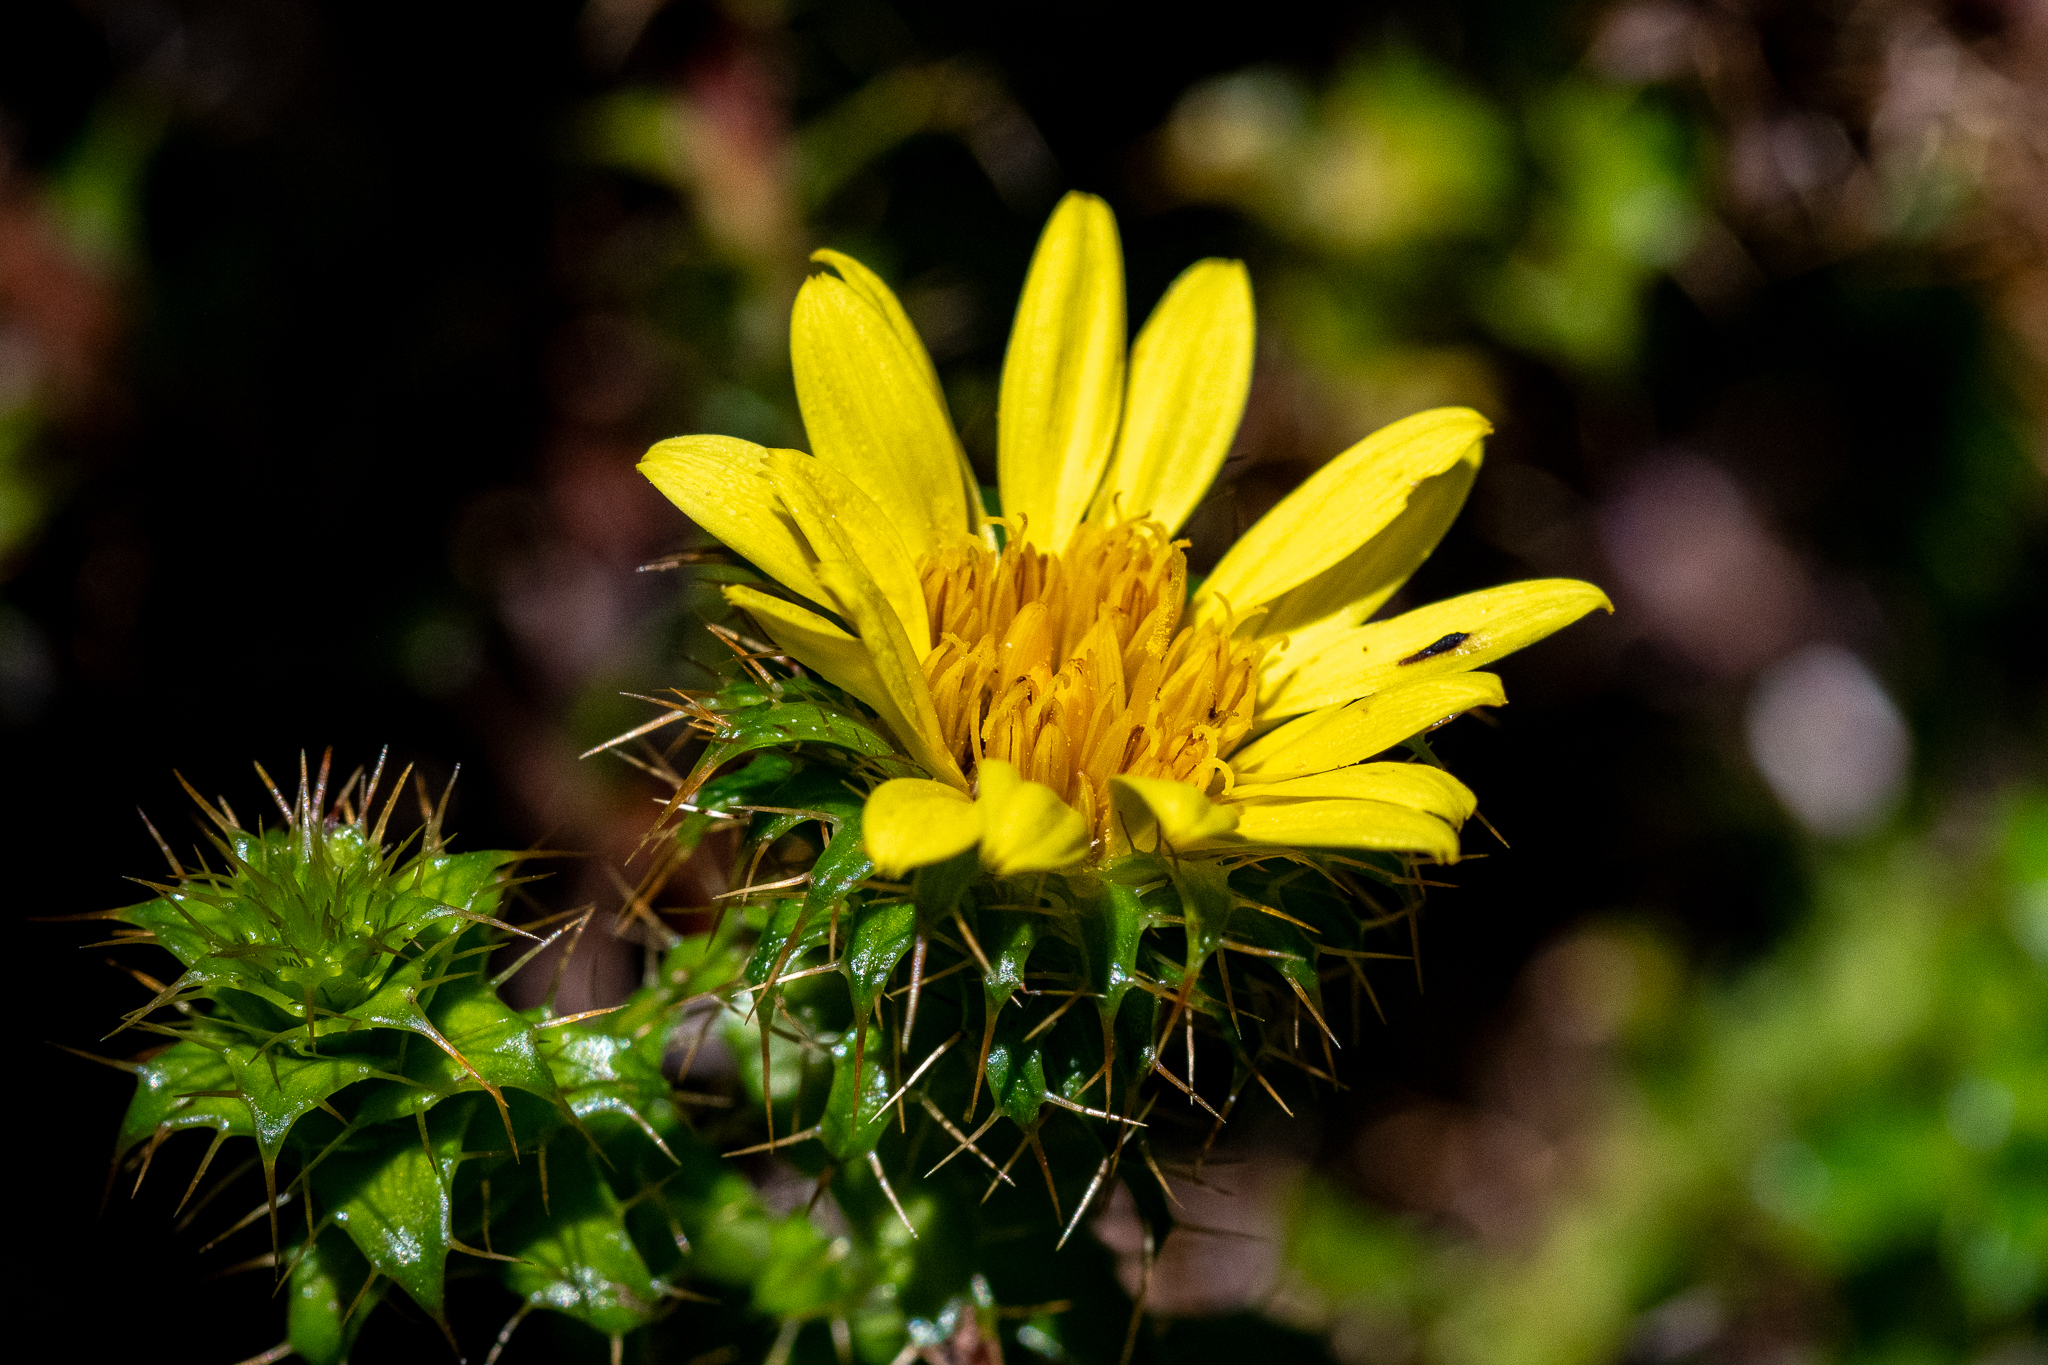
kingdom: Plantae
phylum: Tracheophyta
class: Magnoliopsida
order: Asterales
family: Asteraceae
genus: Cullumia
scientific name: Cullumia setosa
